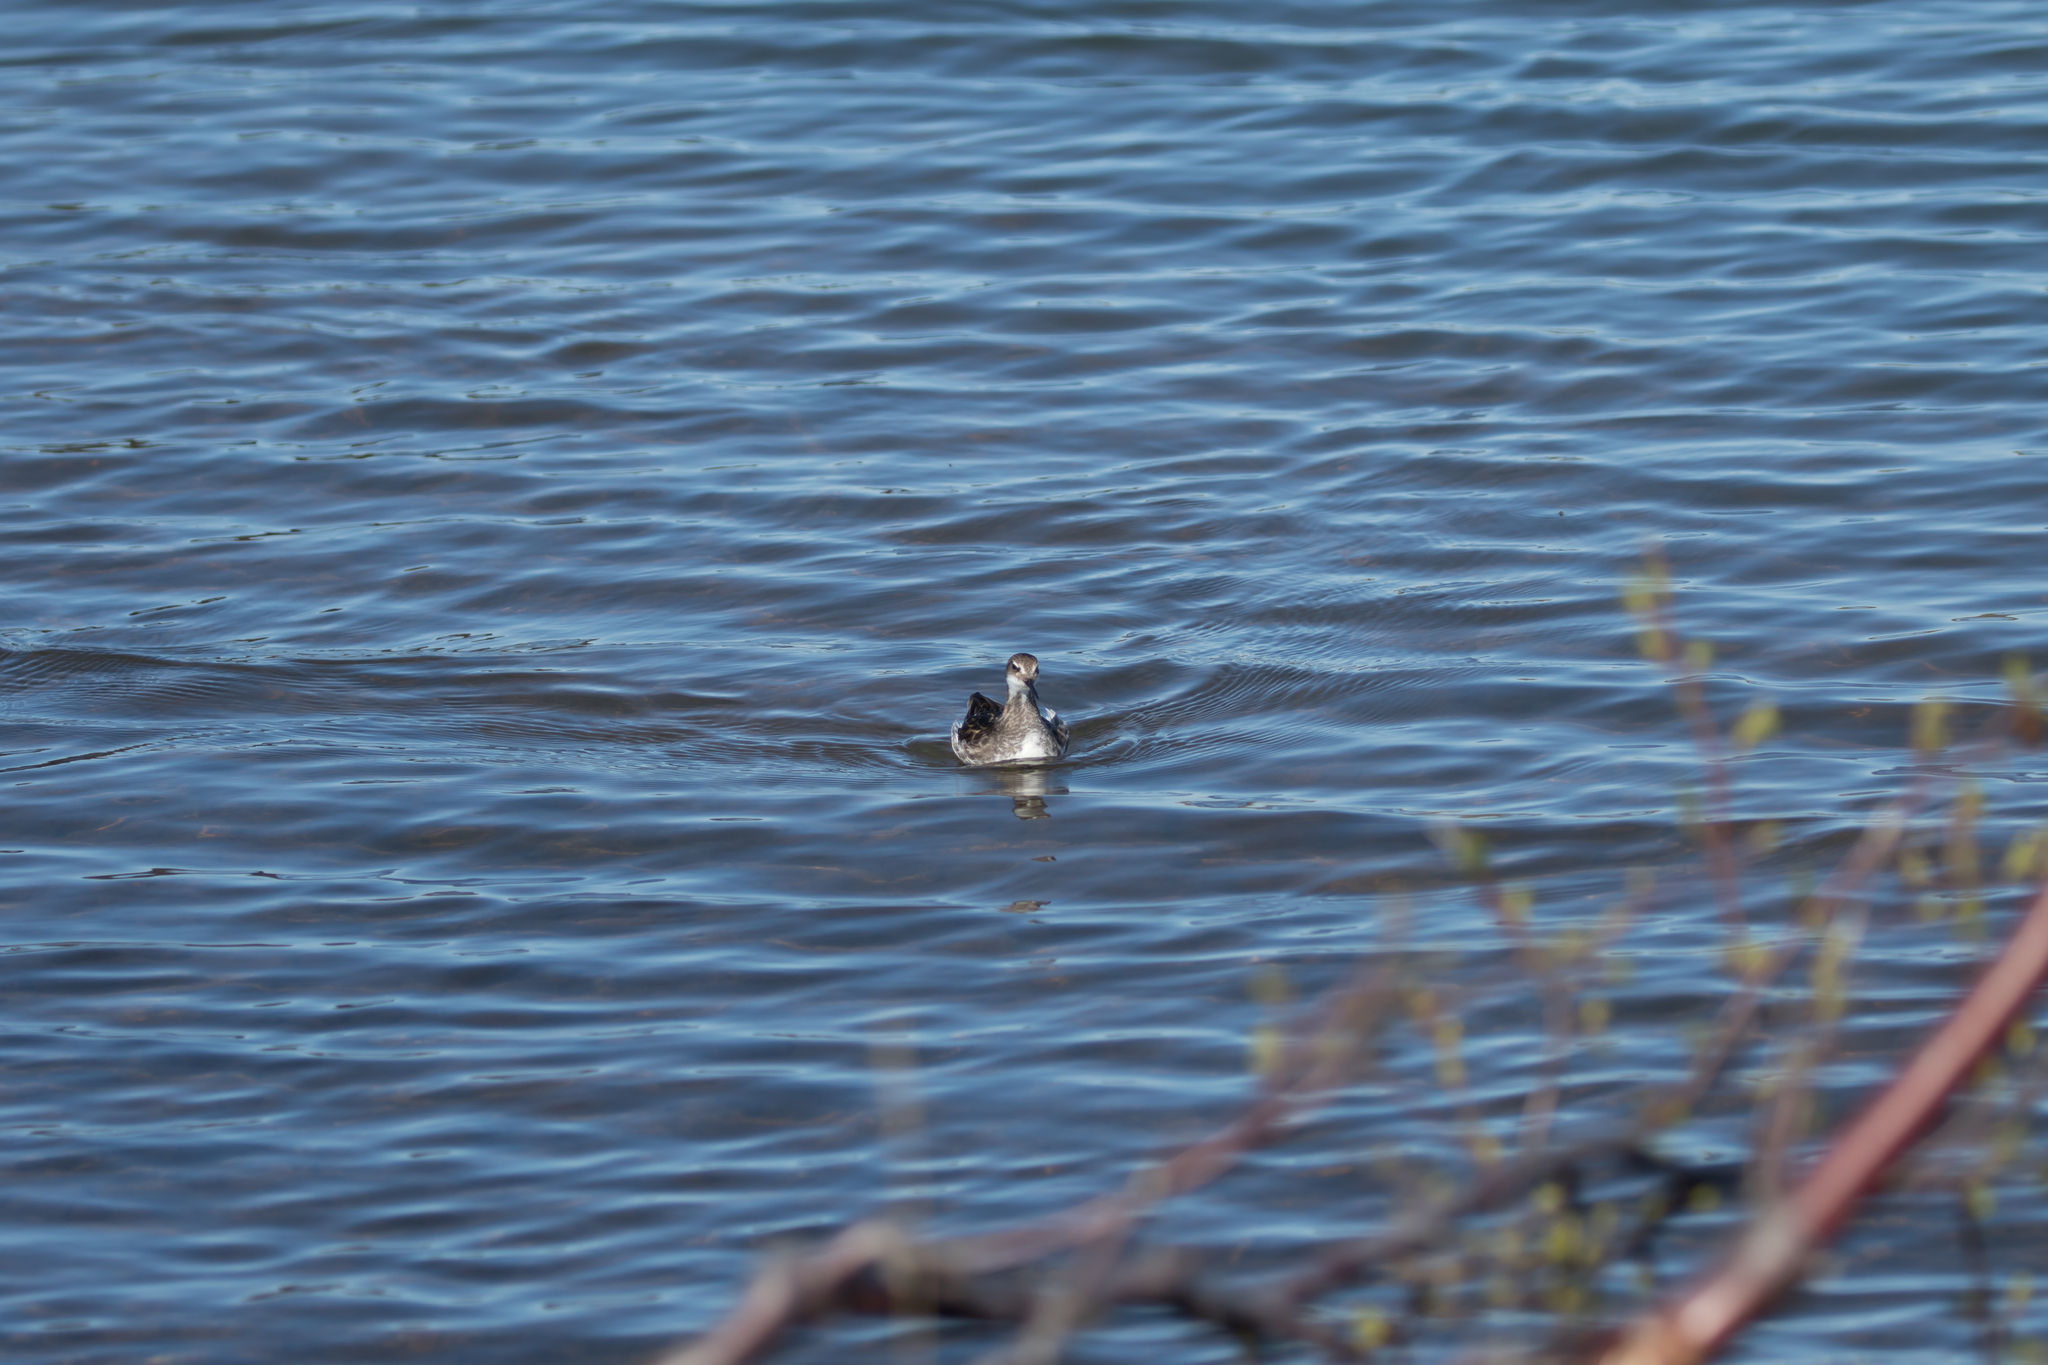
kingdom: Animalia
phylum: Chordata
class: Aves
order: Charadriiformes
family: Scolopacidae
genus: Phalaropus
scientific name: Phalaropus lobatus
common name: Red-necked phalarope
